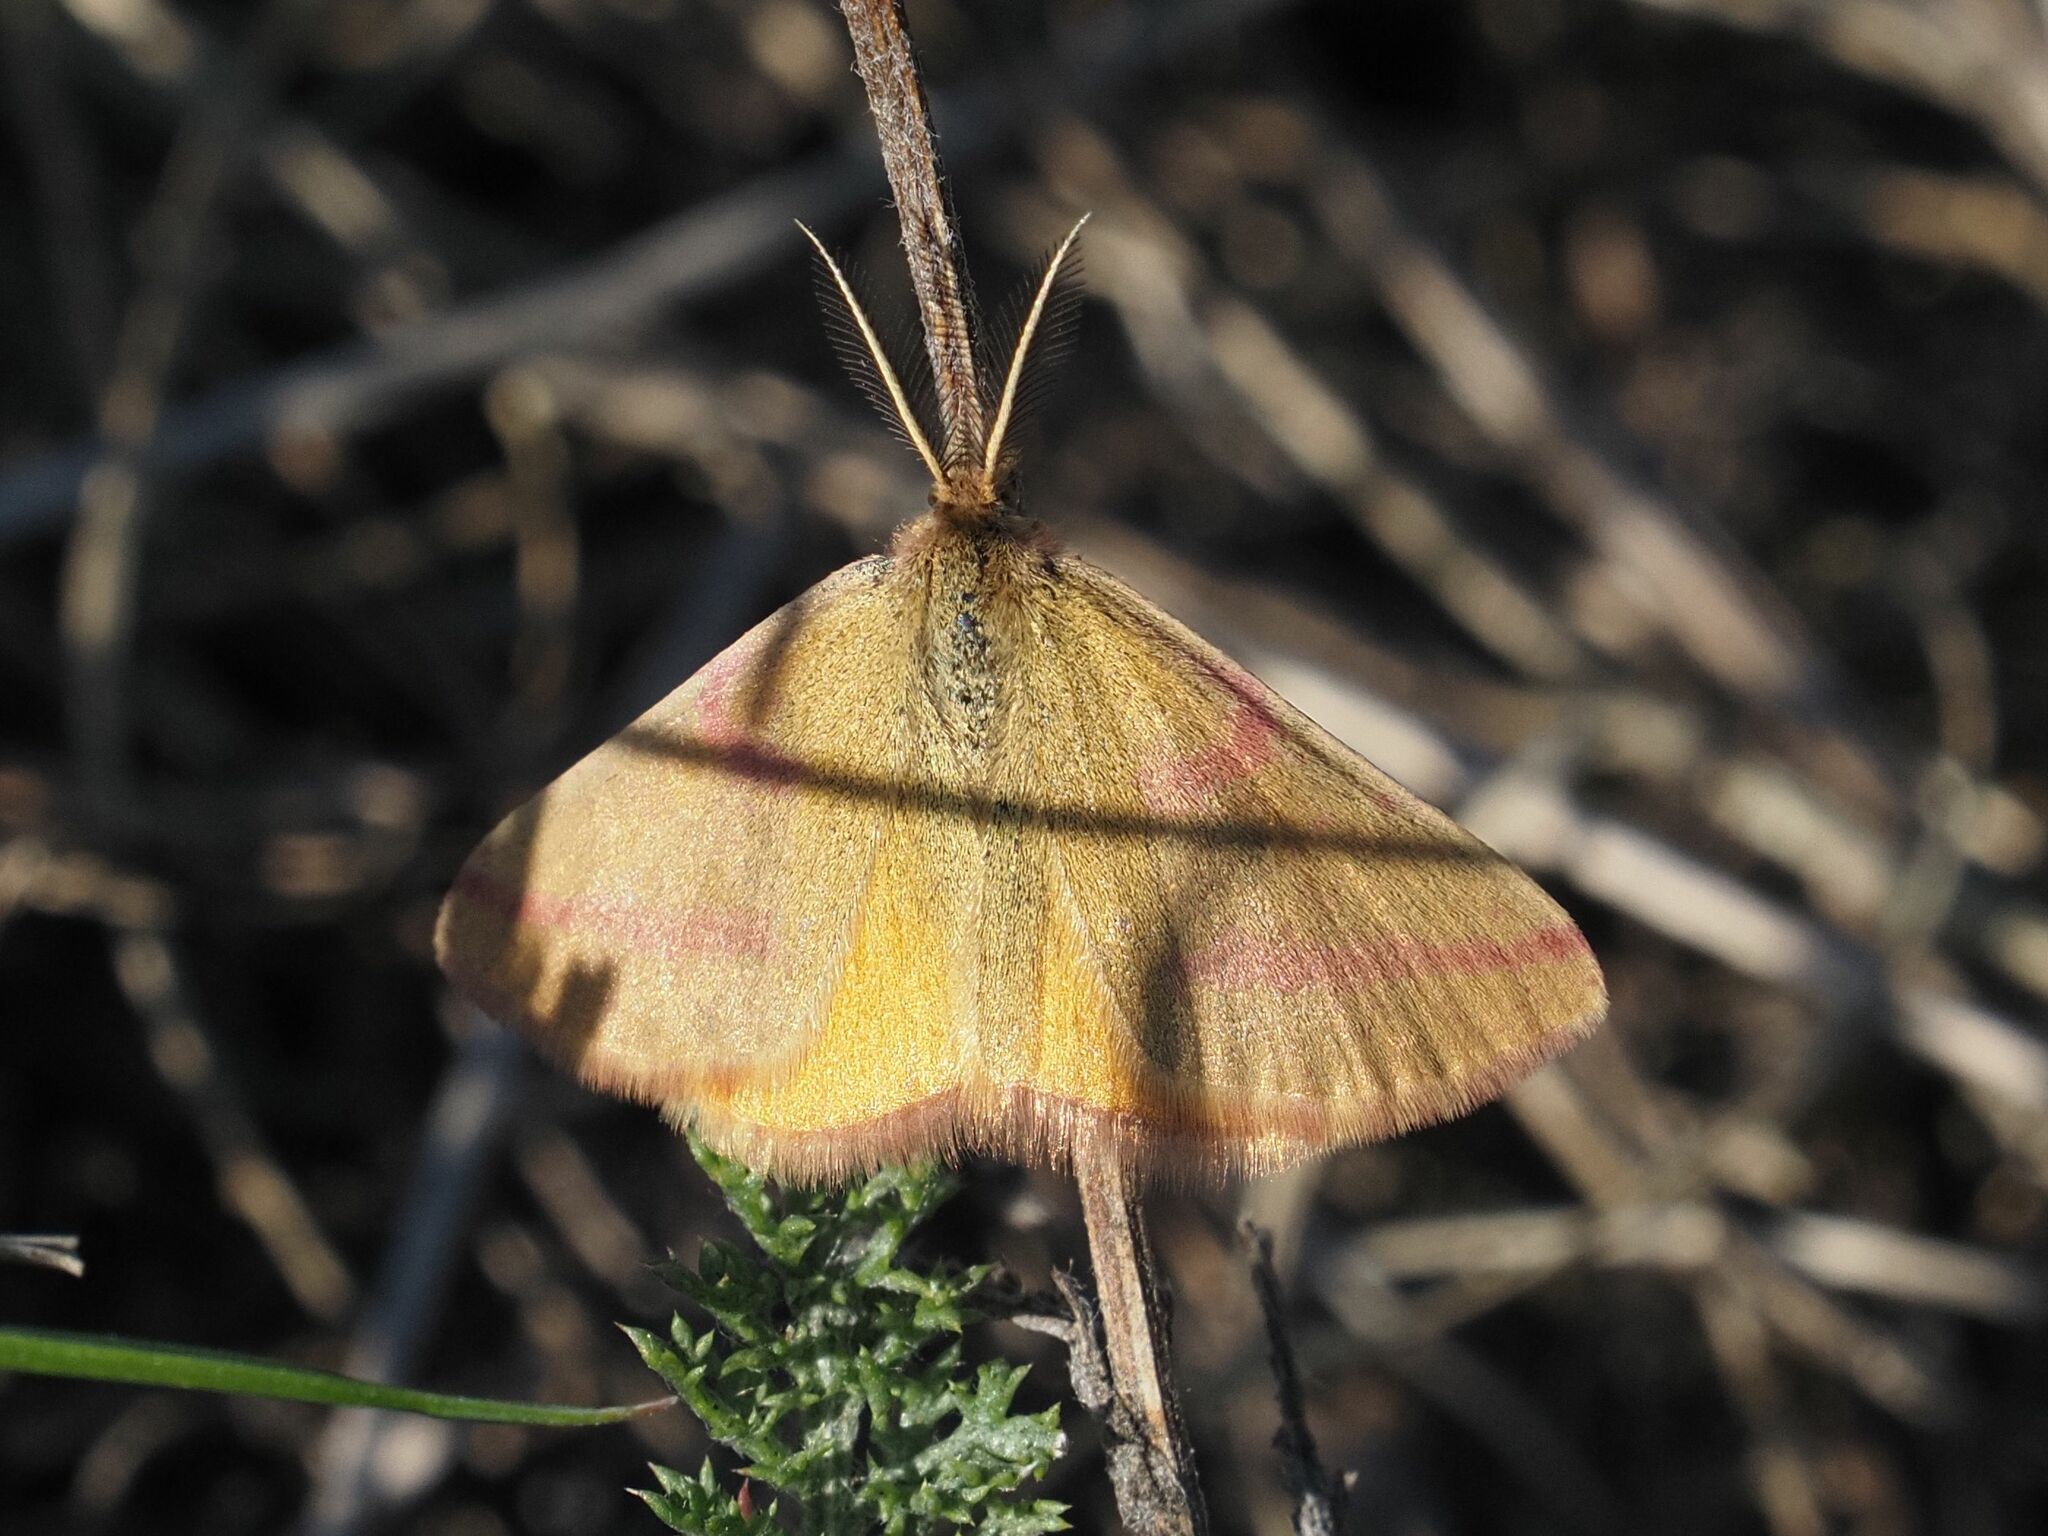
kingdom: Animalia
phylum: Arthropoda
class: Insecta
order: Lepidoptera
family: Geometridae
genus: Lythria
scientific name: Lythria purpuraria
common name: Purple-barred yellow
